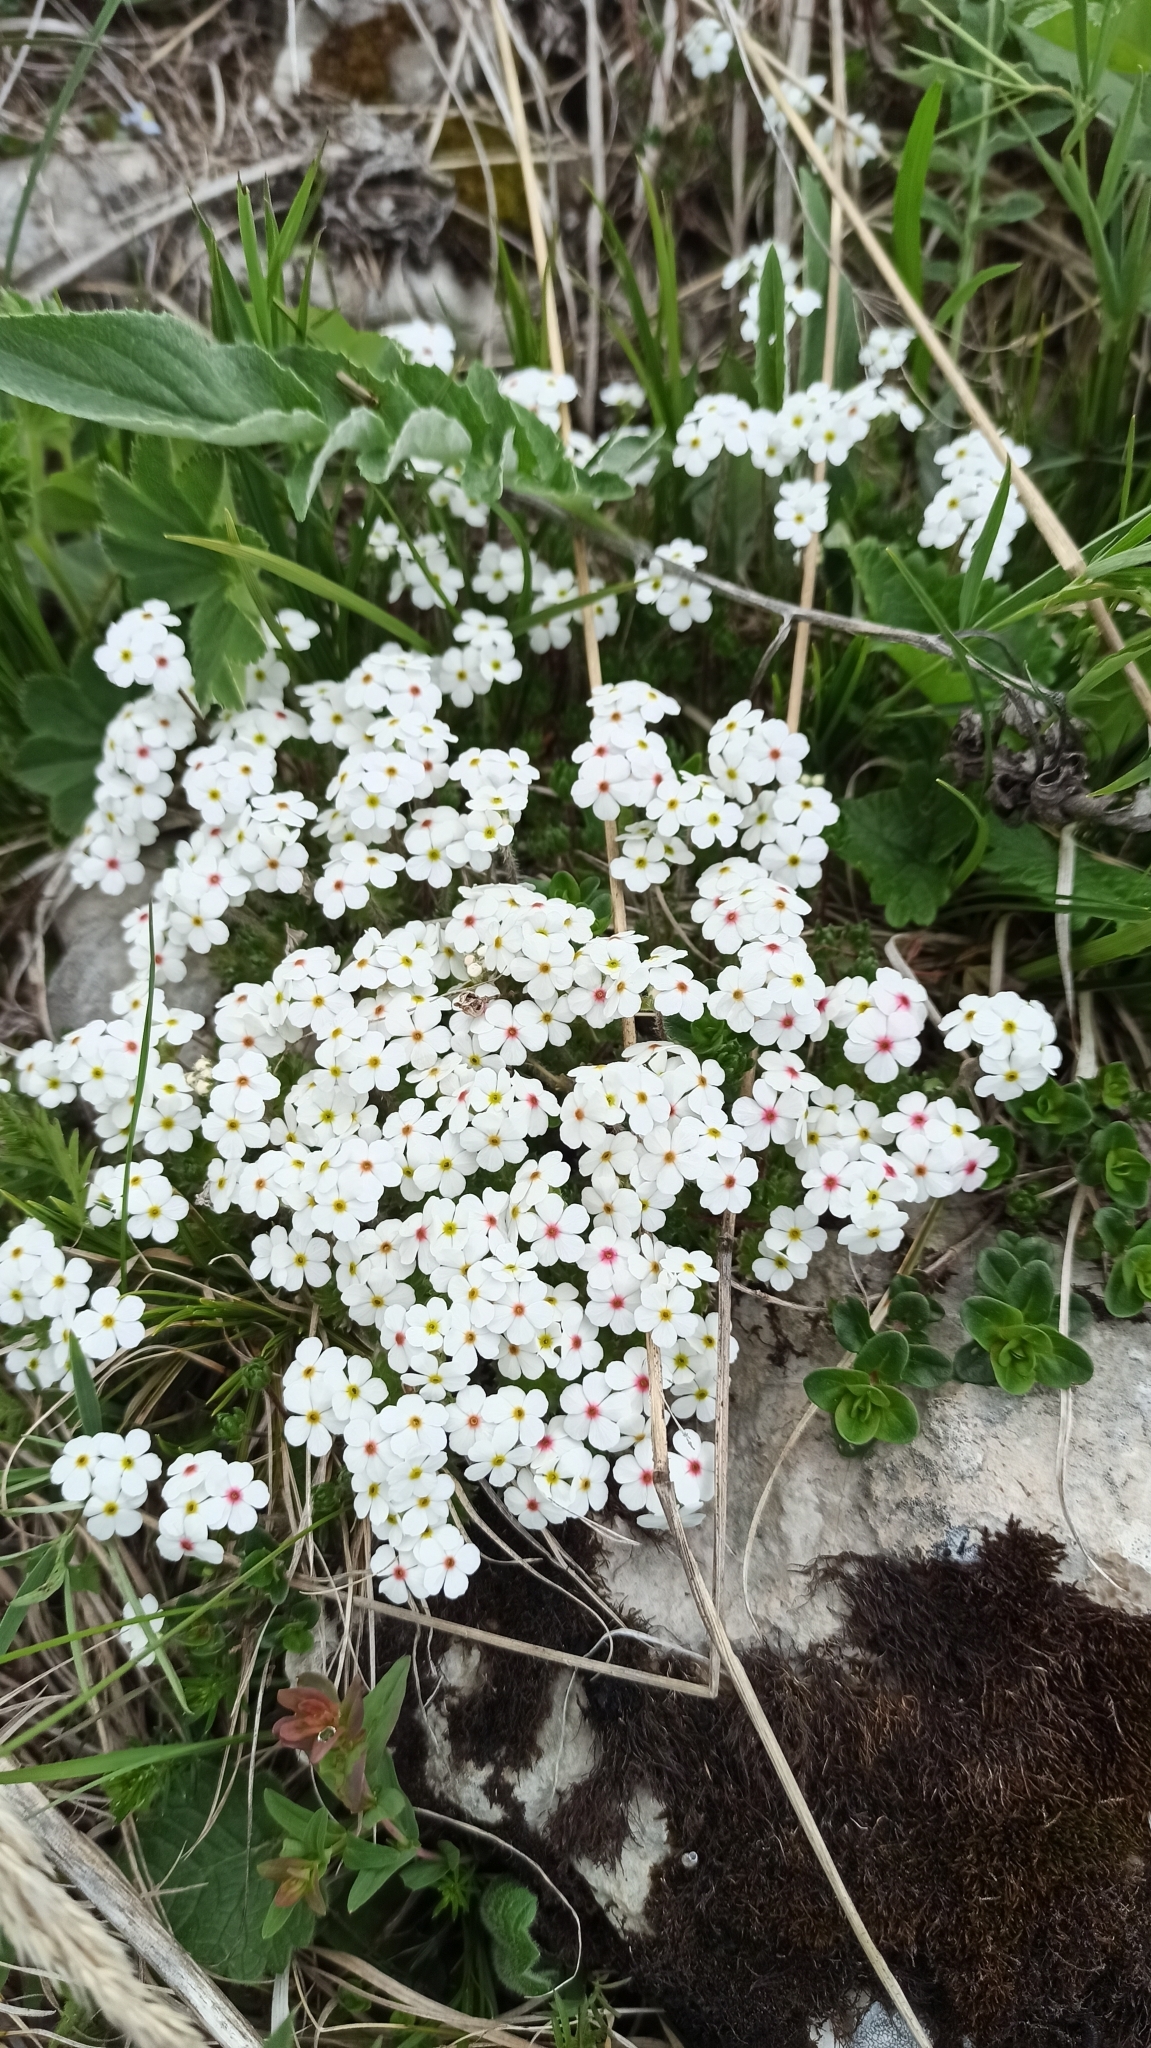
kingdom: Plantae
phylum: Tracheophyta
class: Magnoliopsida
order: Ericales
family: Primulaceae
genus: Androsace
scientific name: Androsace villosa
